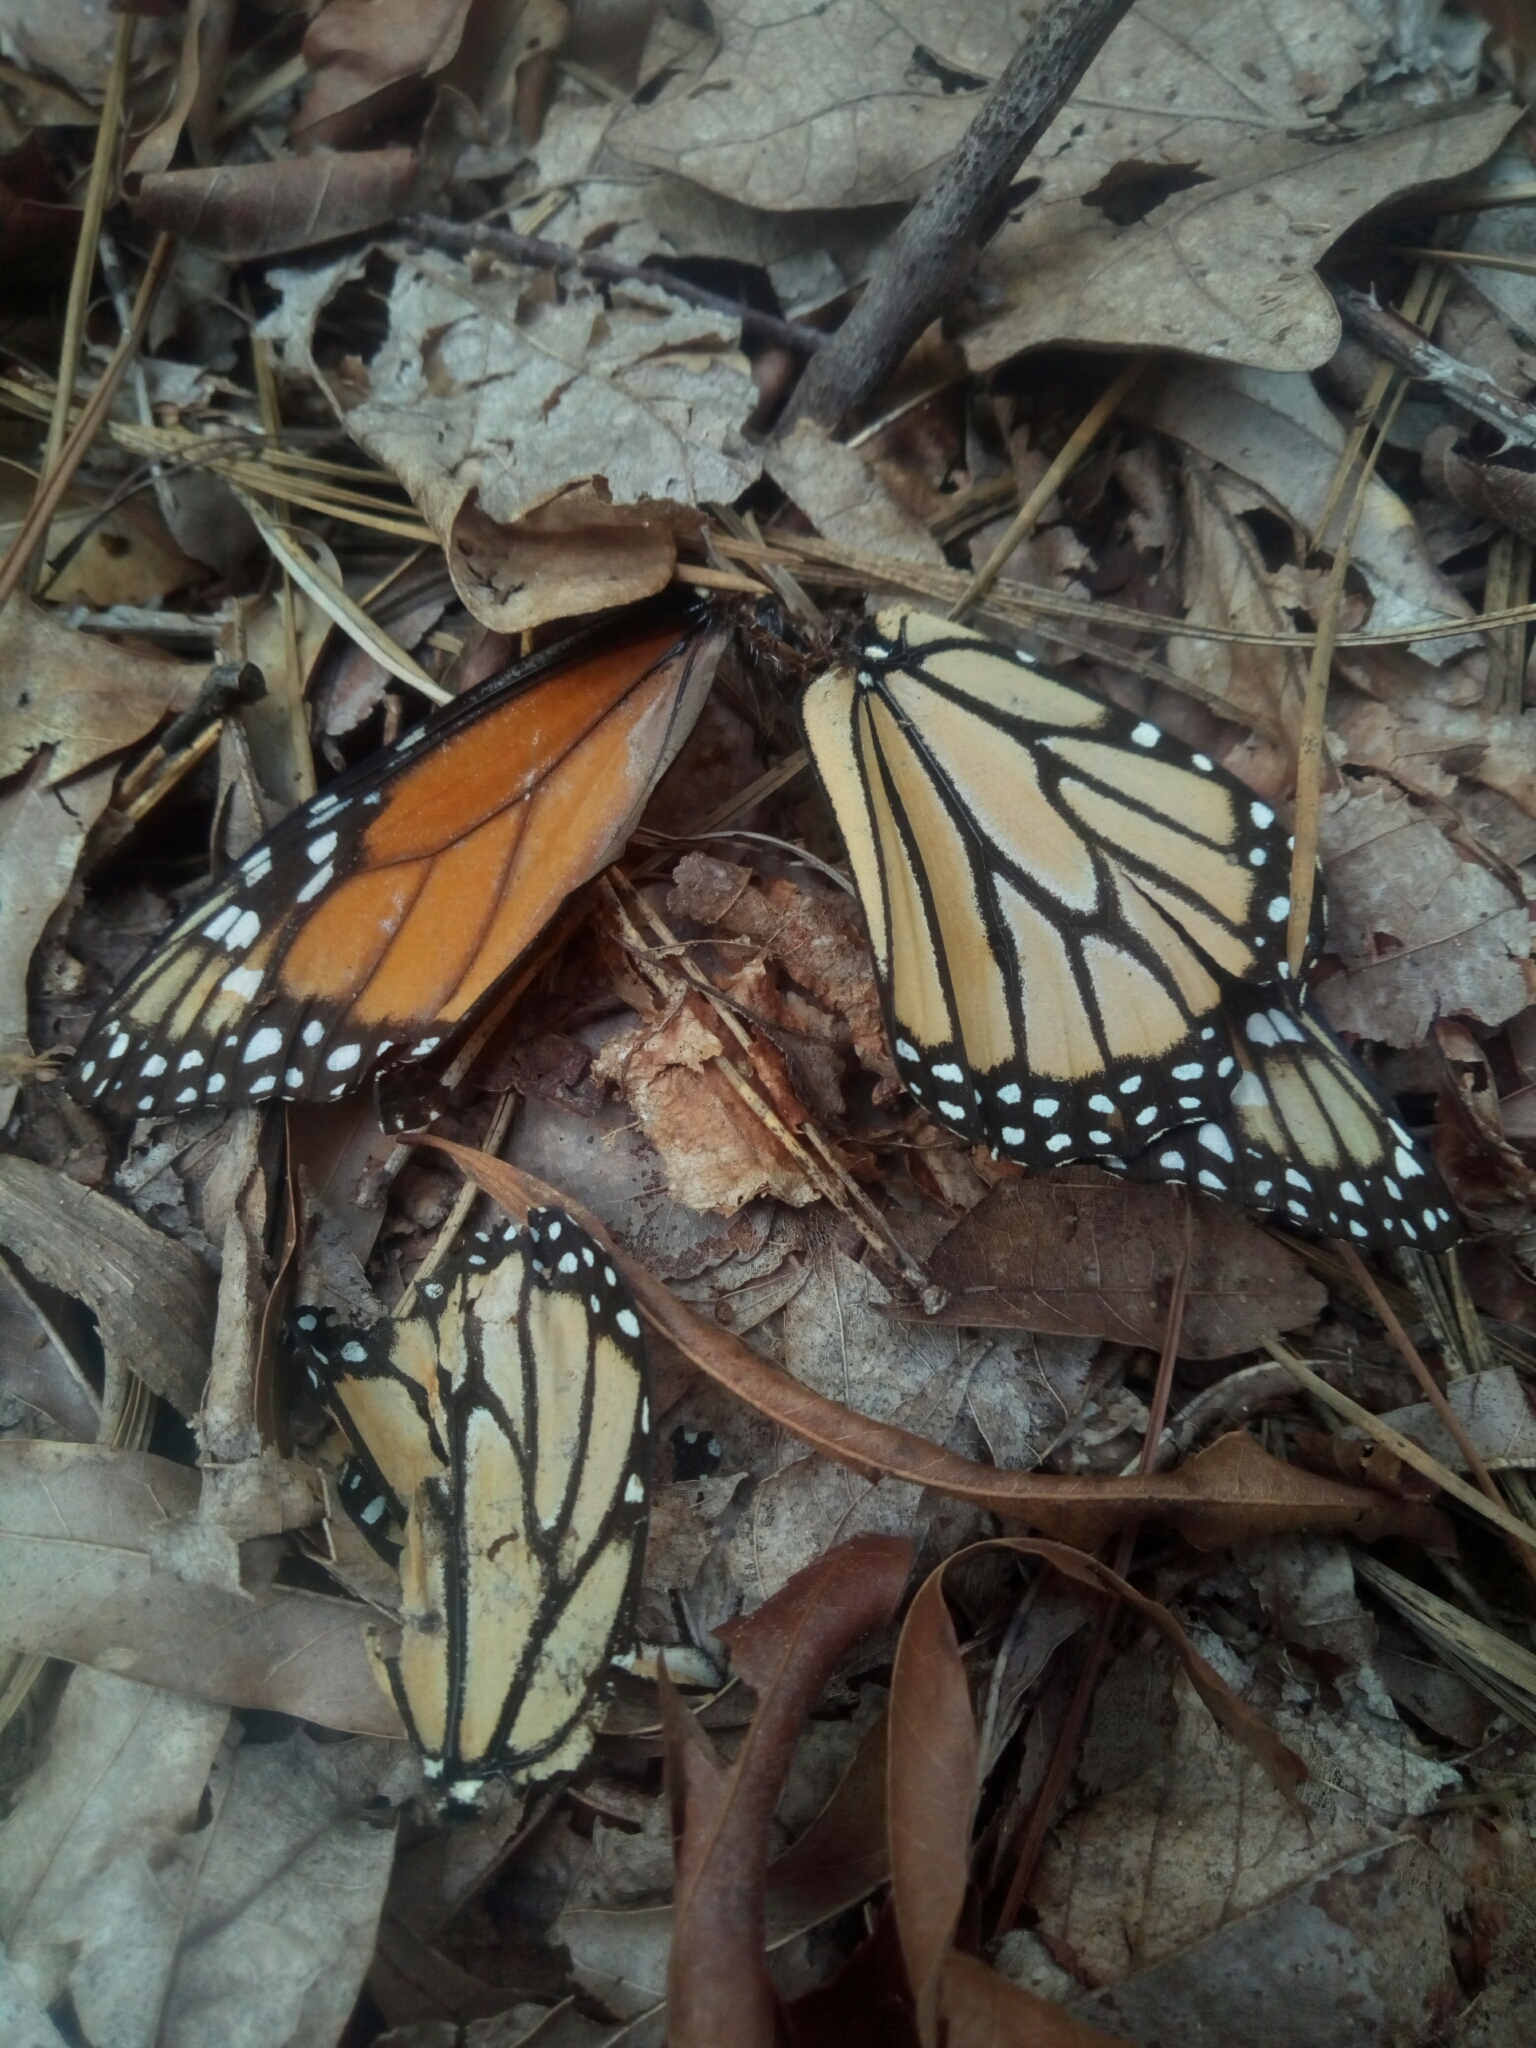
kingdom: Animalia
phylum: Arthropoda
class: Insecta
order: Lepidoptera
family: Nymphalidae
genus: Danaus
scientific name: Danaus plexippus
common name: Monarch
